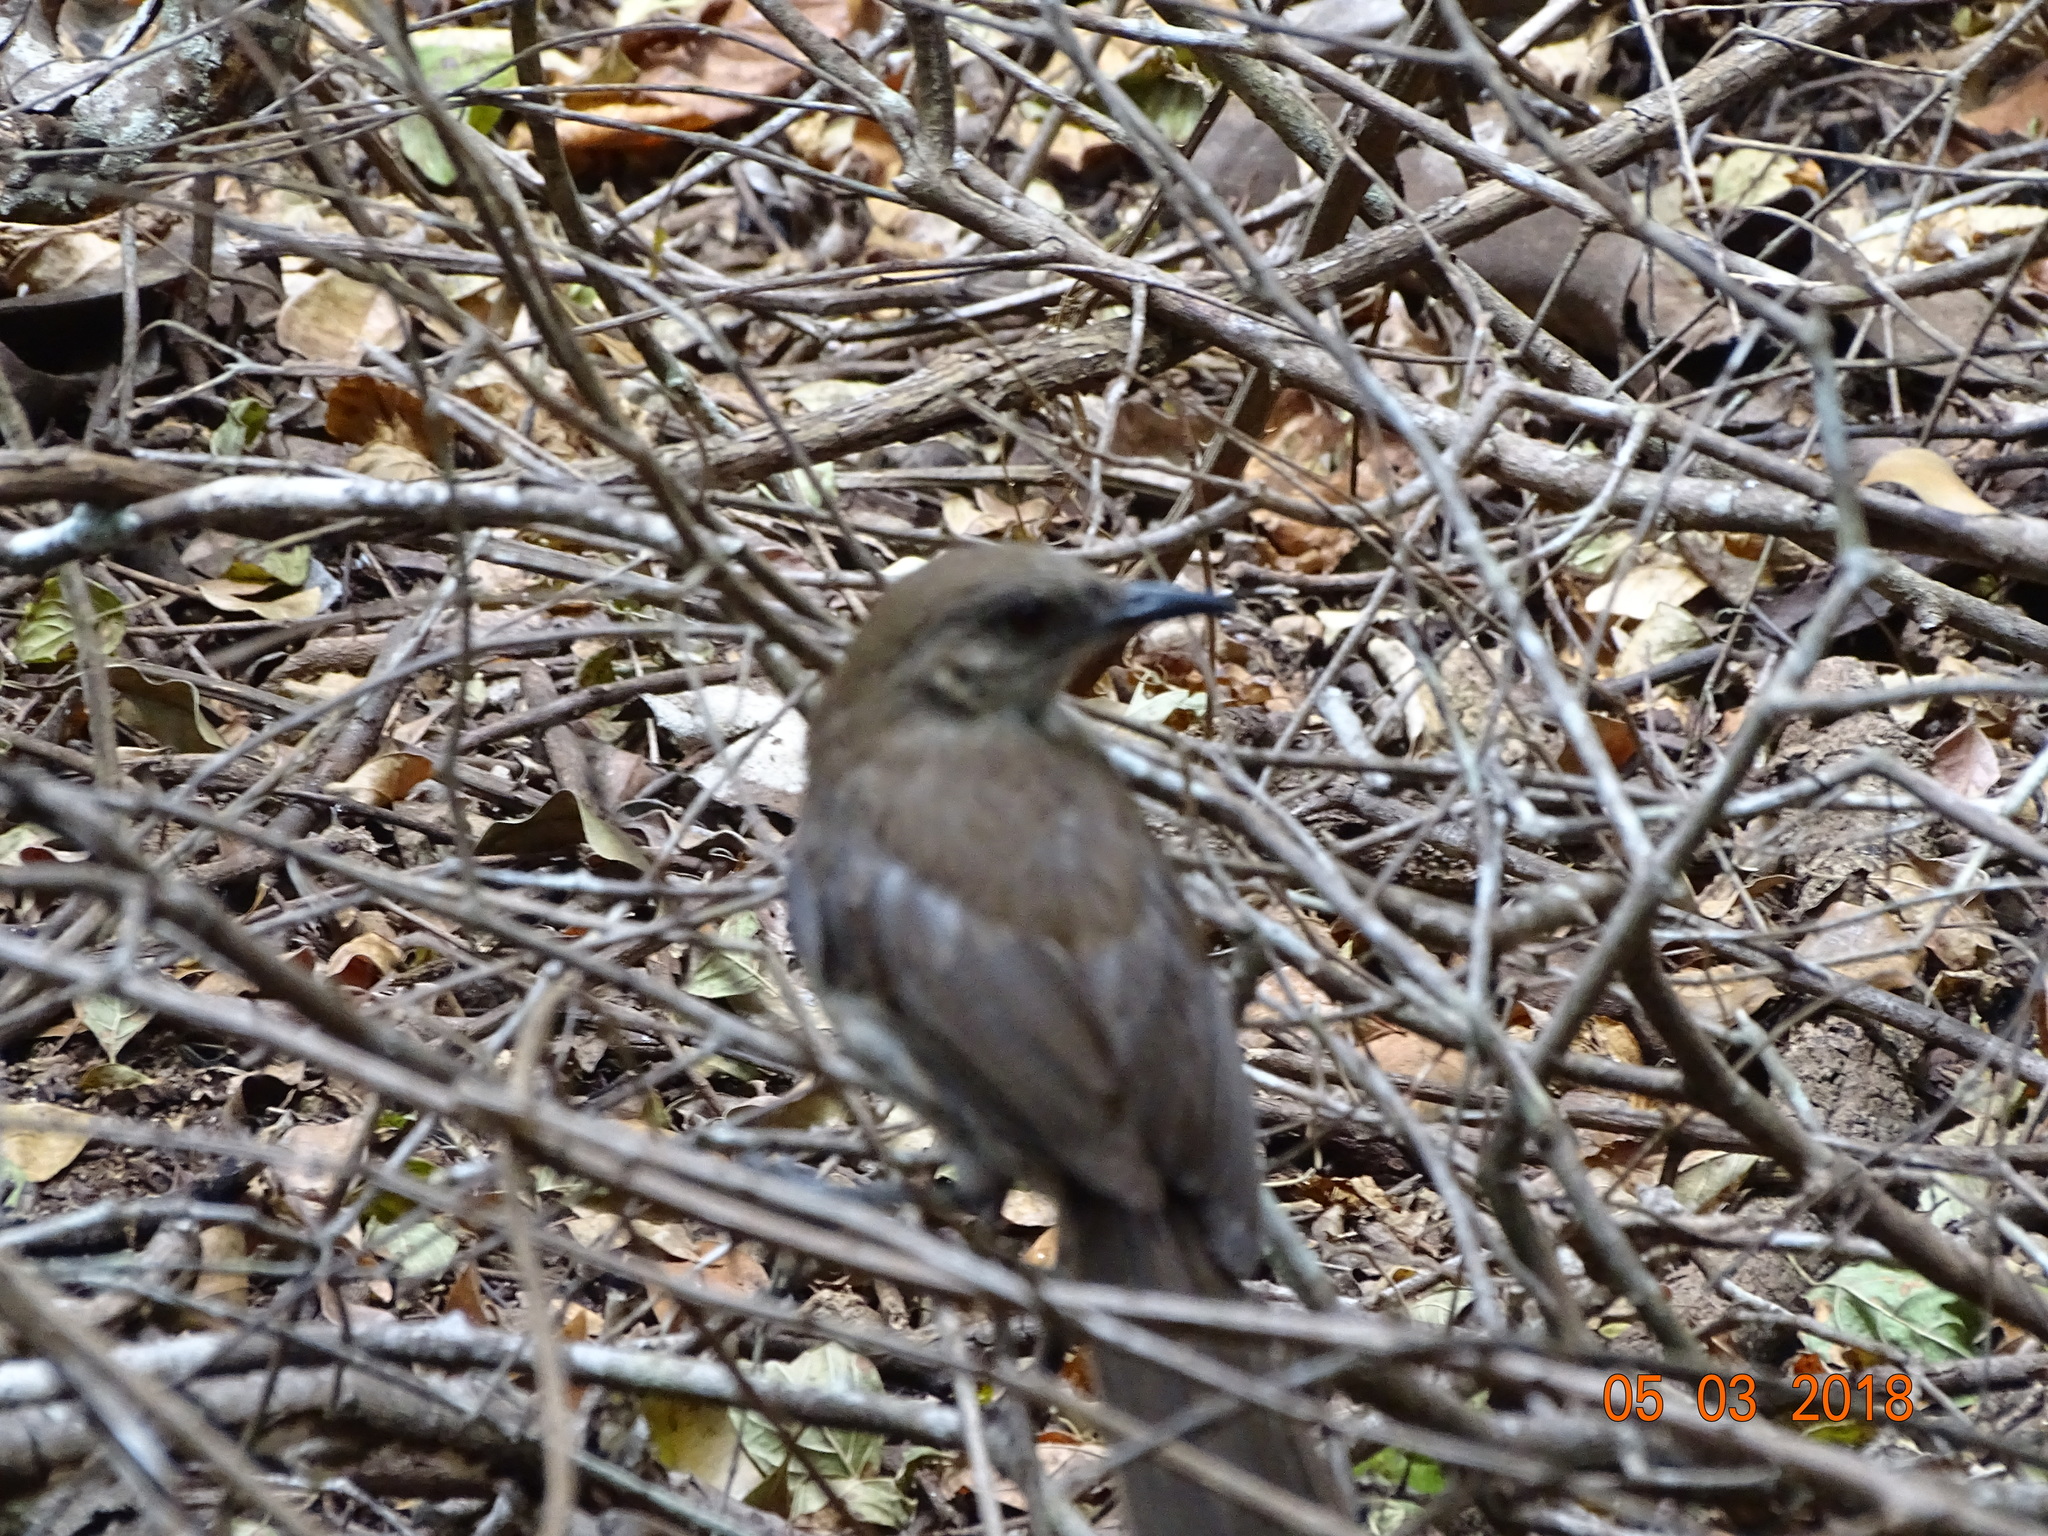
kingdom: Animalia
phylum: Chordata
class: Aves
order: Passeriformes
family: Mimidae
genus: Mimus
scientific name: Mimus graysoni
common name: Socorro mockingbird
